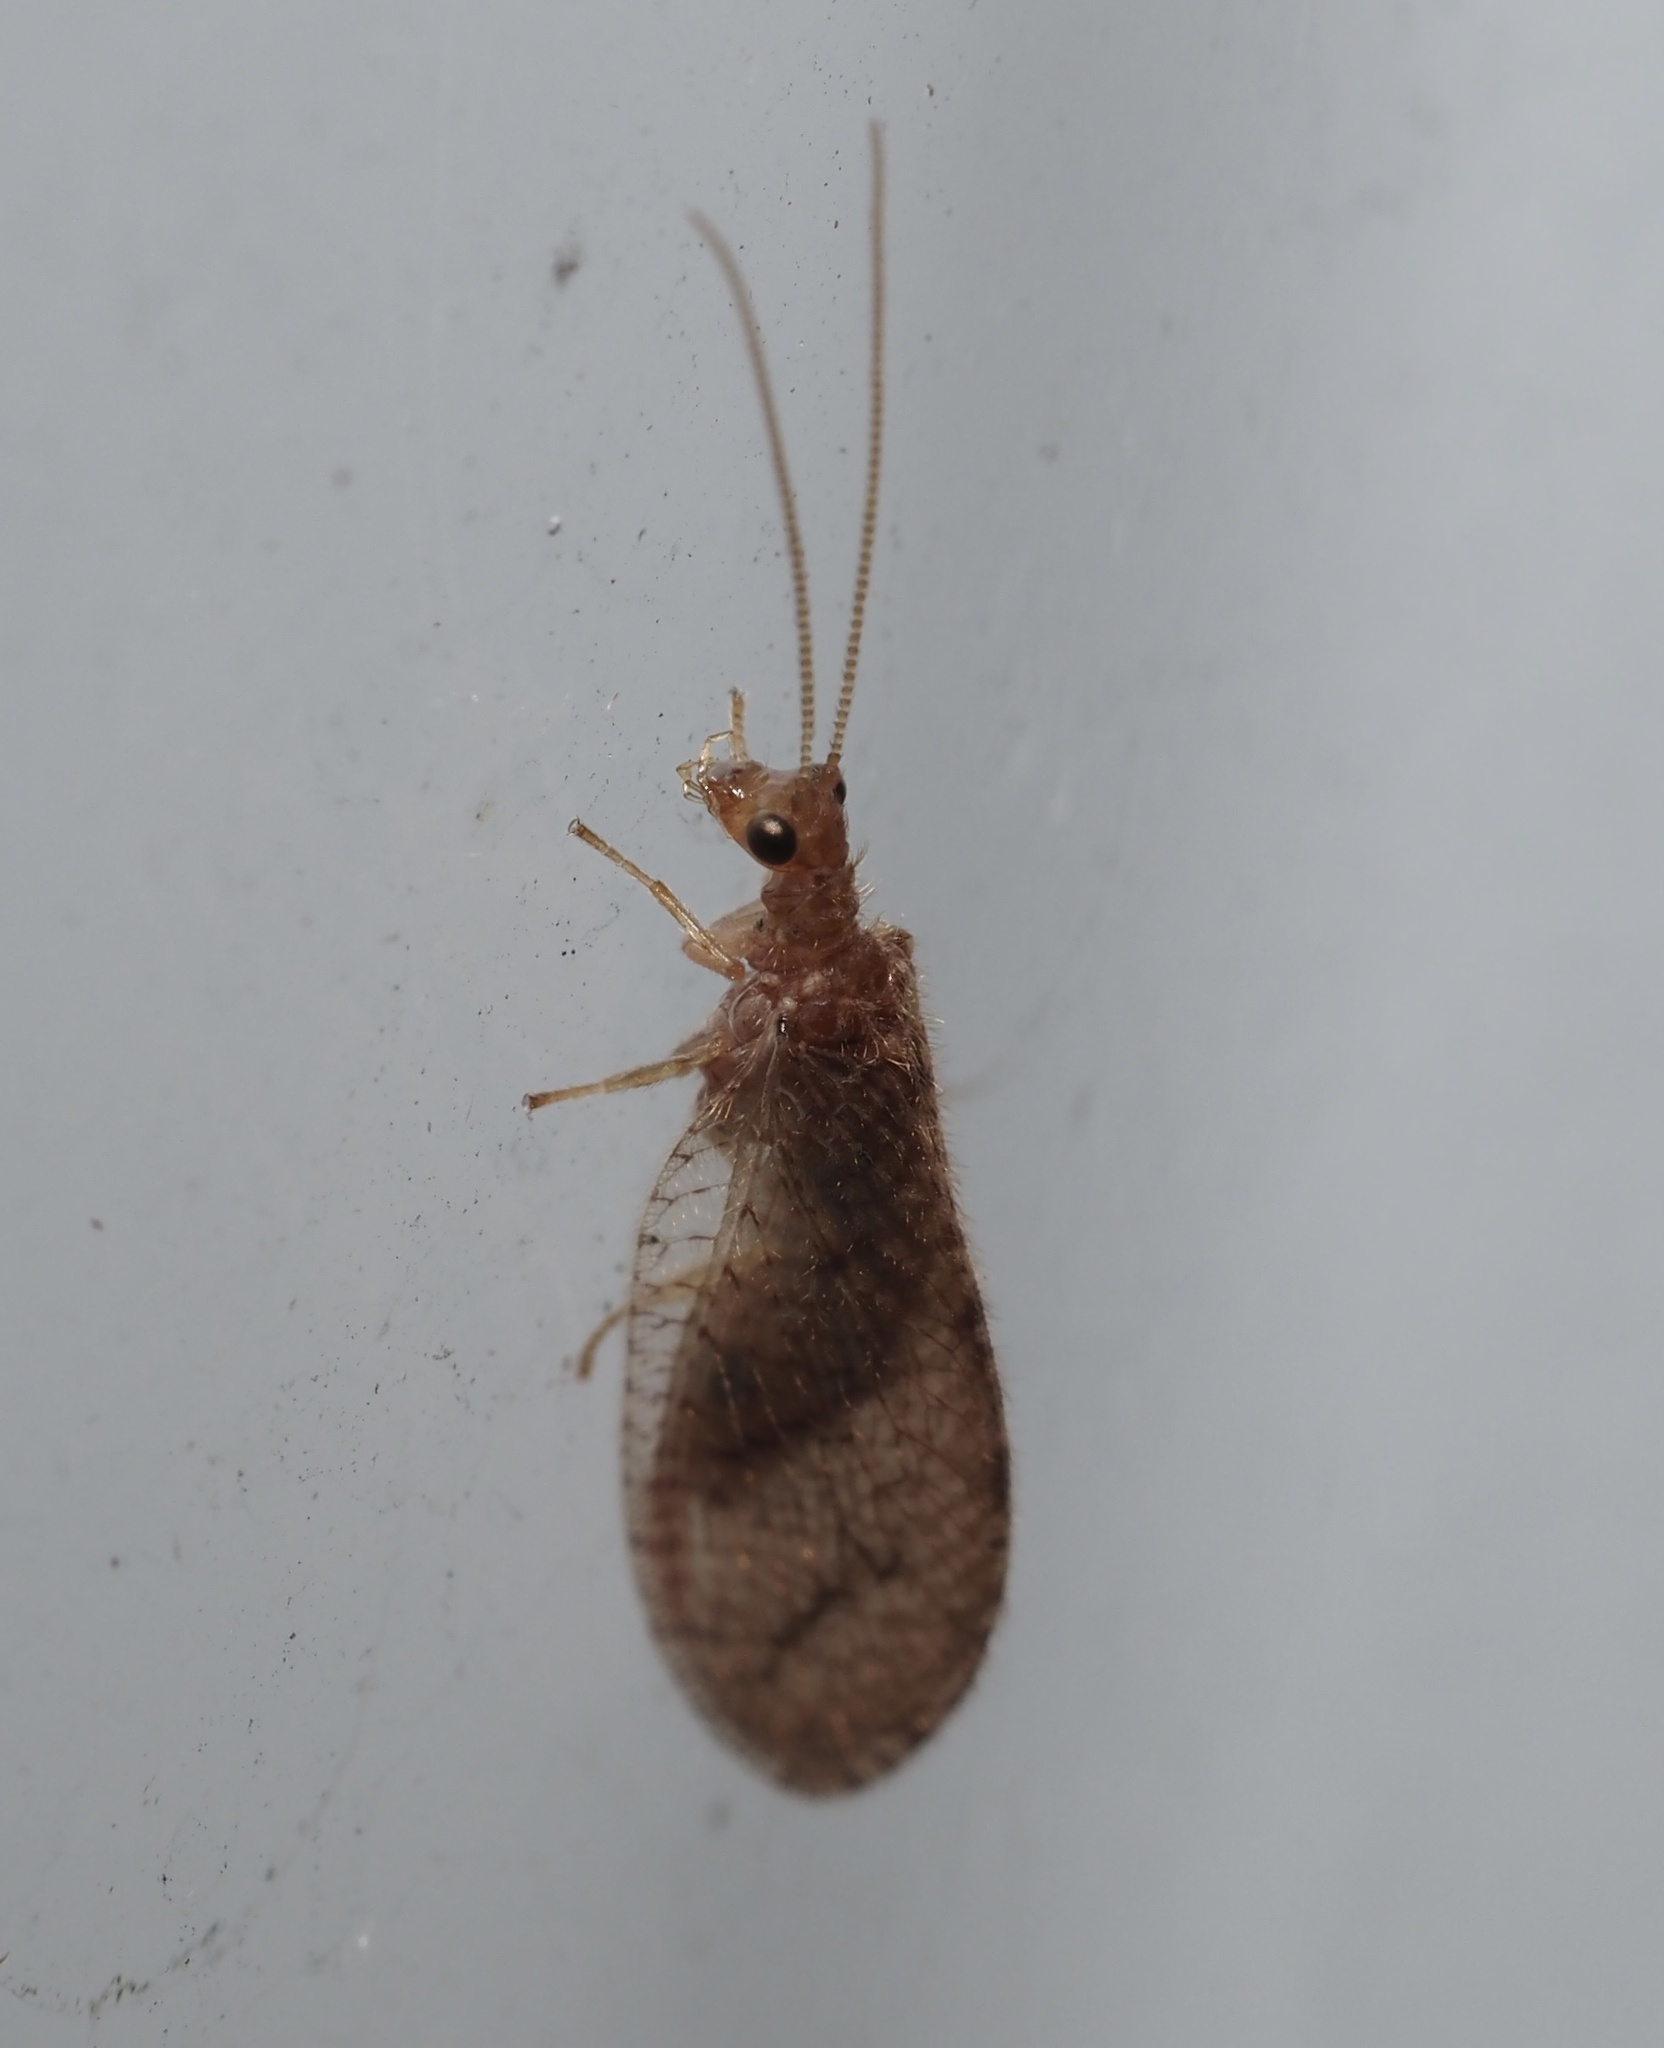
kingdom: Animalia
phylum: Arthropoda
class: Insecta
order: Neuroptera
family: Hemerobiidae
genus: Micromus
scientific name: Micromus posticus
